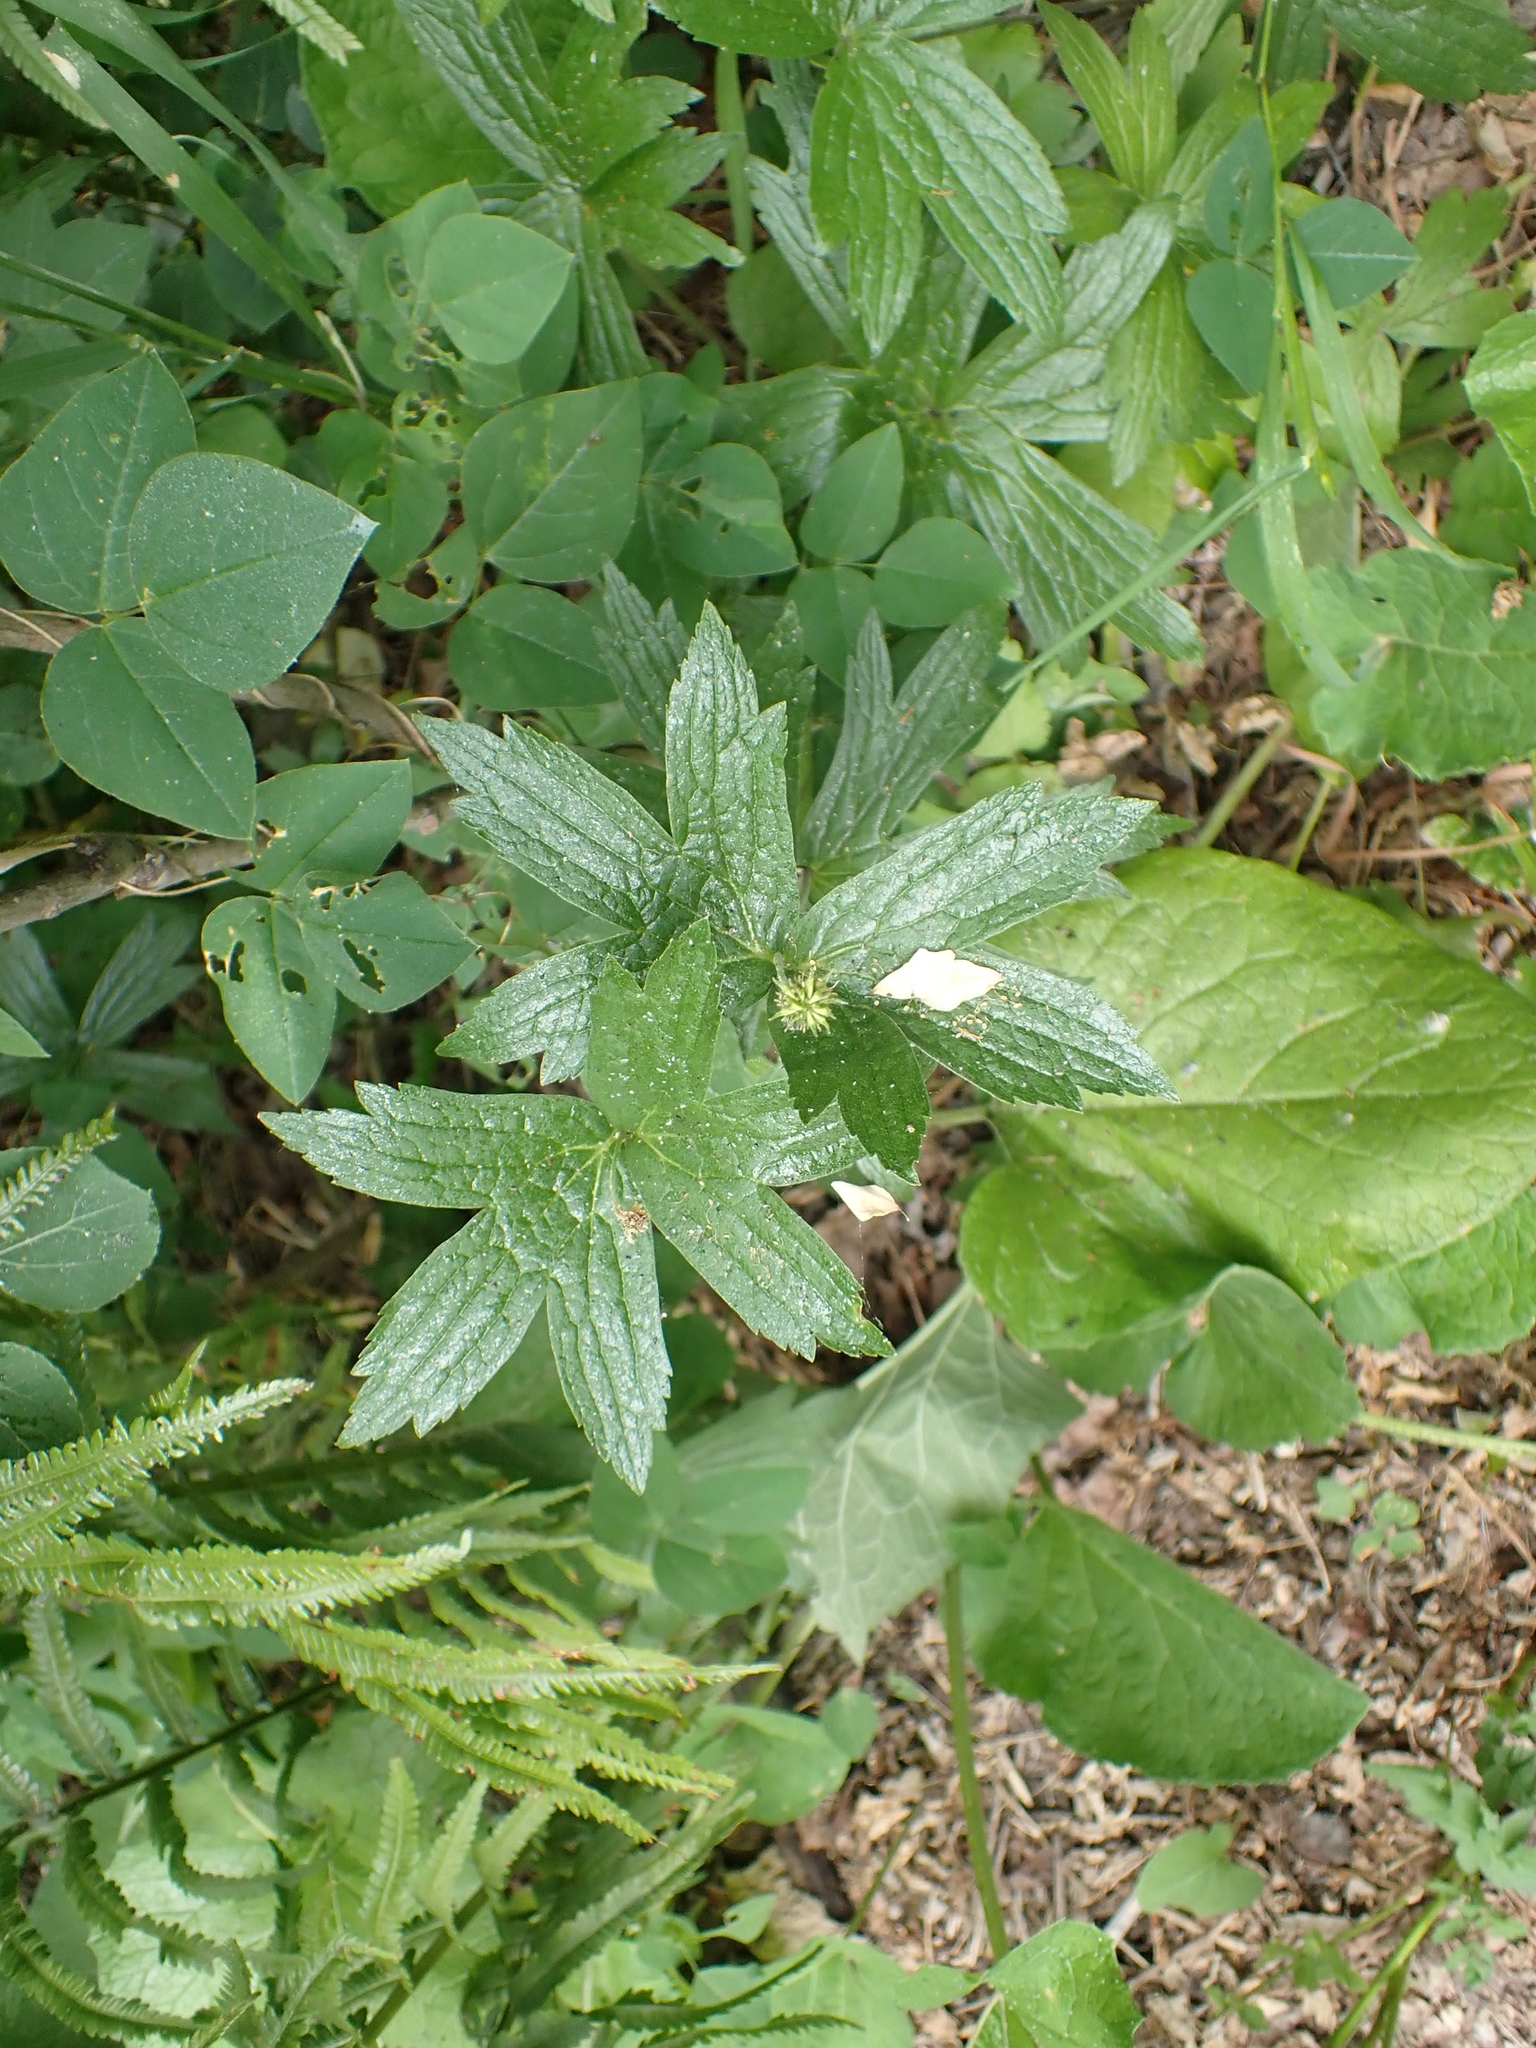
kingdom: Plantae
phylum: Tracheophyta
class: Magnoliopsida
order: Ranunculales
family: Ranunculaceae
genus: Anemonastrum
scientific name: Anemonastrum canadense
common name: Canada anemone
